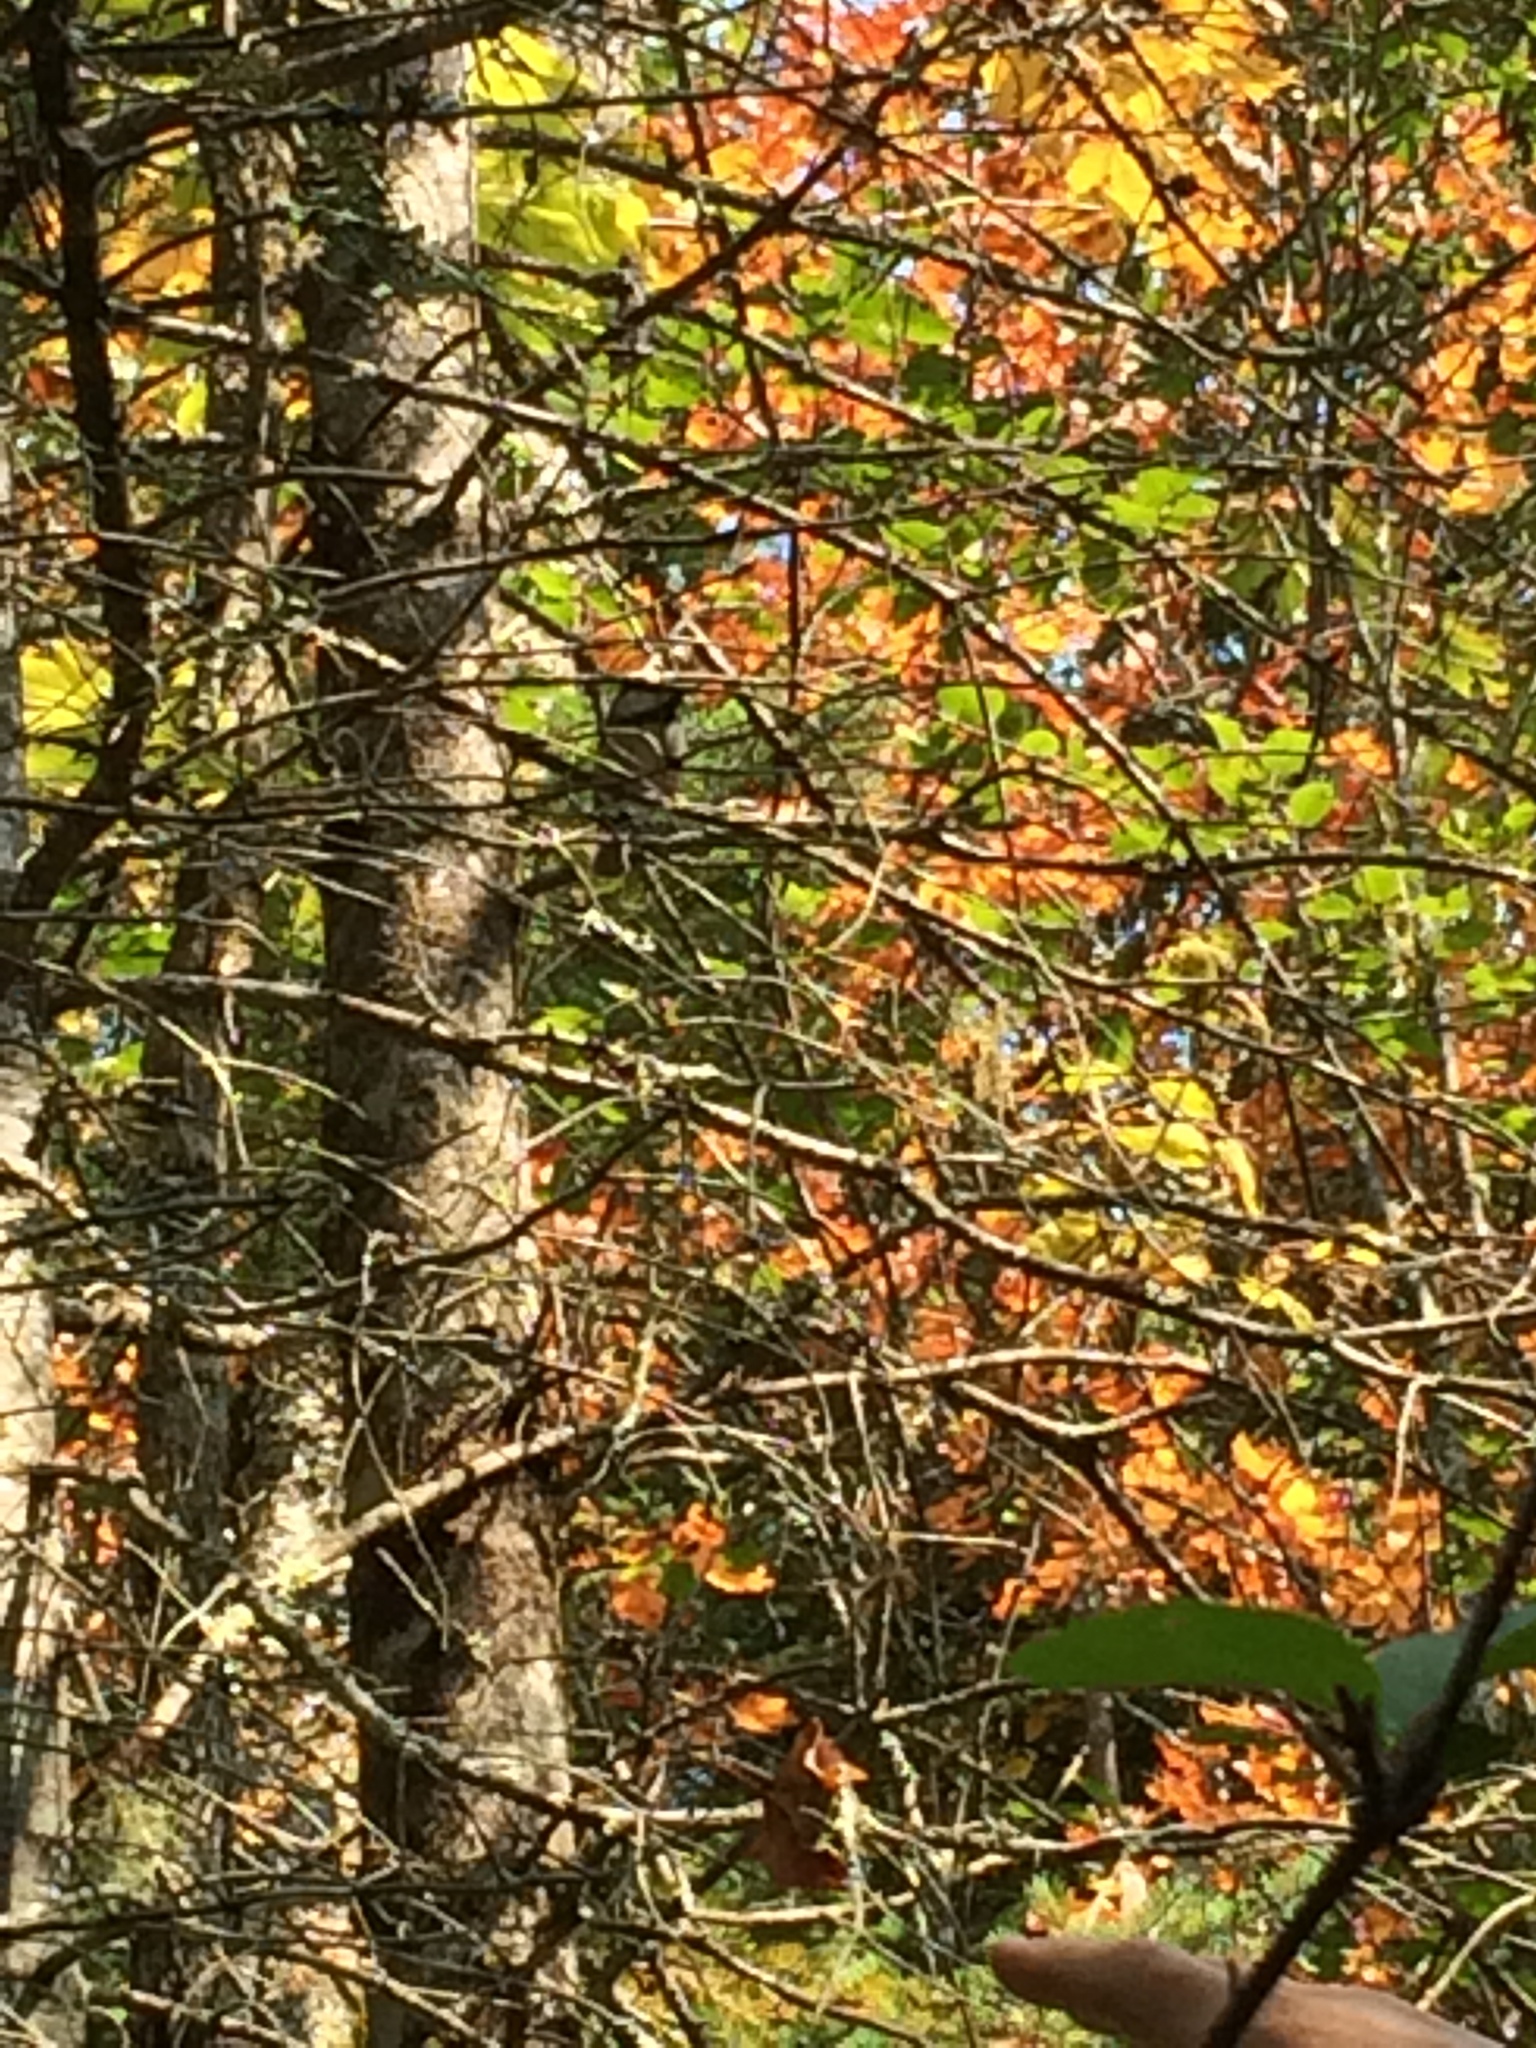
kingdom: Animalia
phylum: Chordata
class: Aves
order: Passeriformes
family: Paridae
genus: Poecile
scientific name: Poecile atricapillus
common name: Black-capped chickadee
